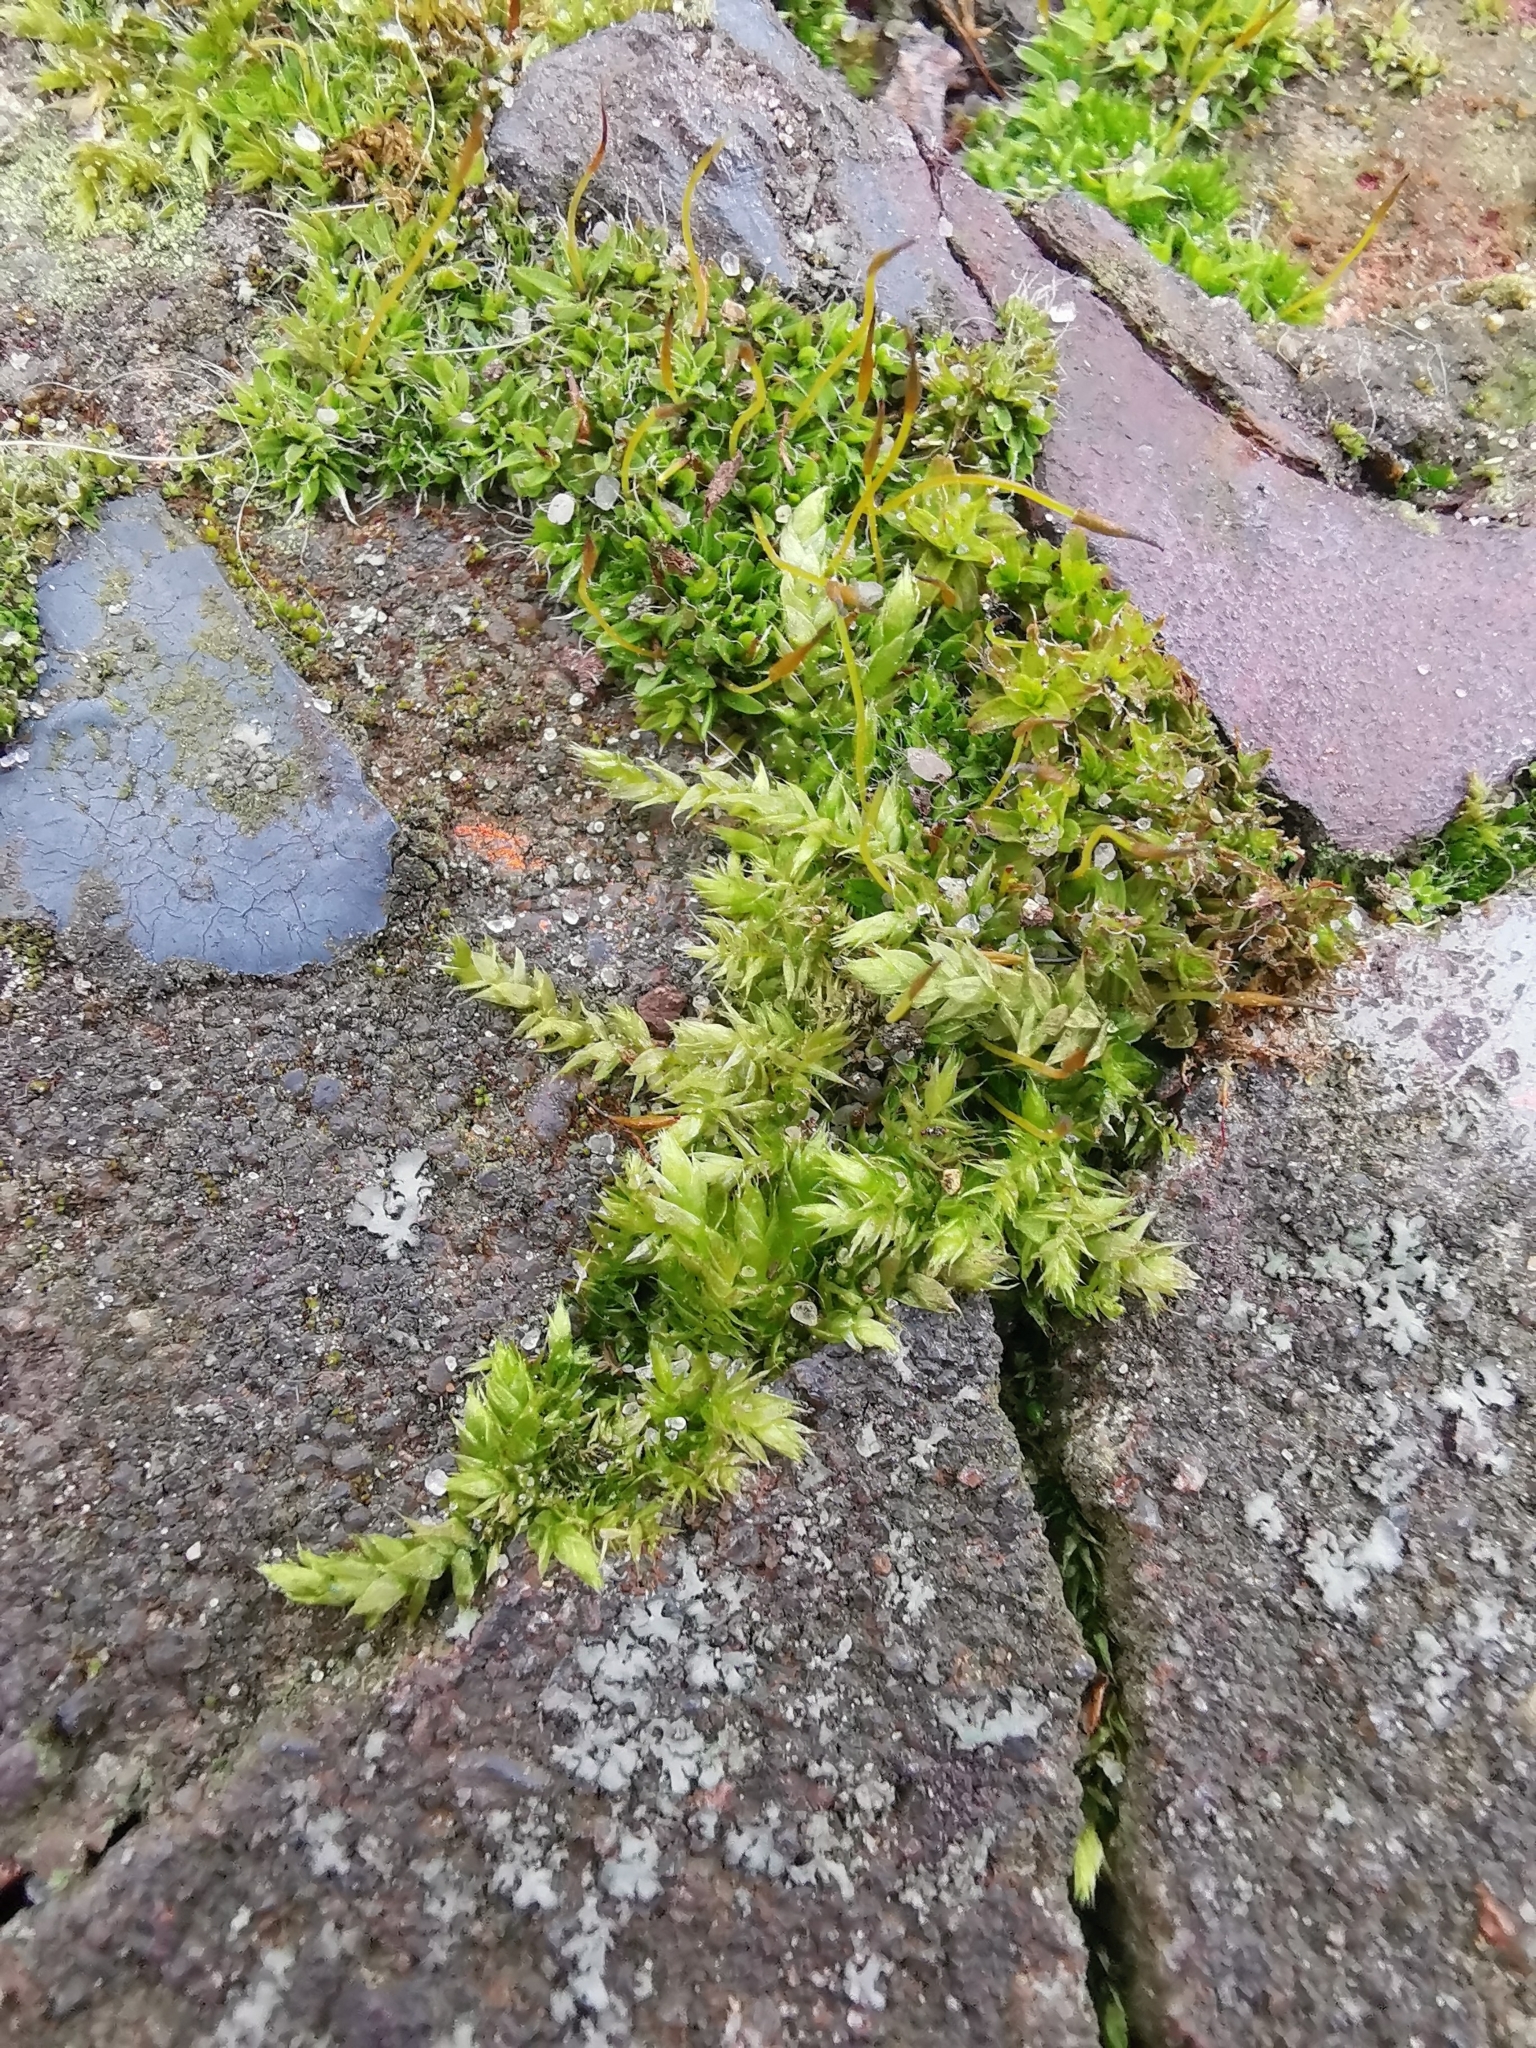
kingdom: Plantae
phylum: Bryophyta
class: Bryopsida
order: Hypnales
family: Brachytheciaceae
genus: Brachythecium
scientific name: Brachythecium rutabulum
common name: Rough-stalked feather-moss
